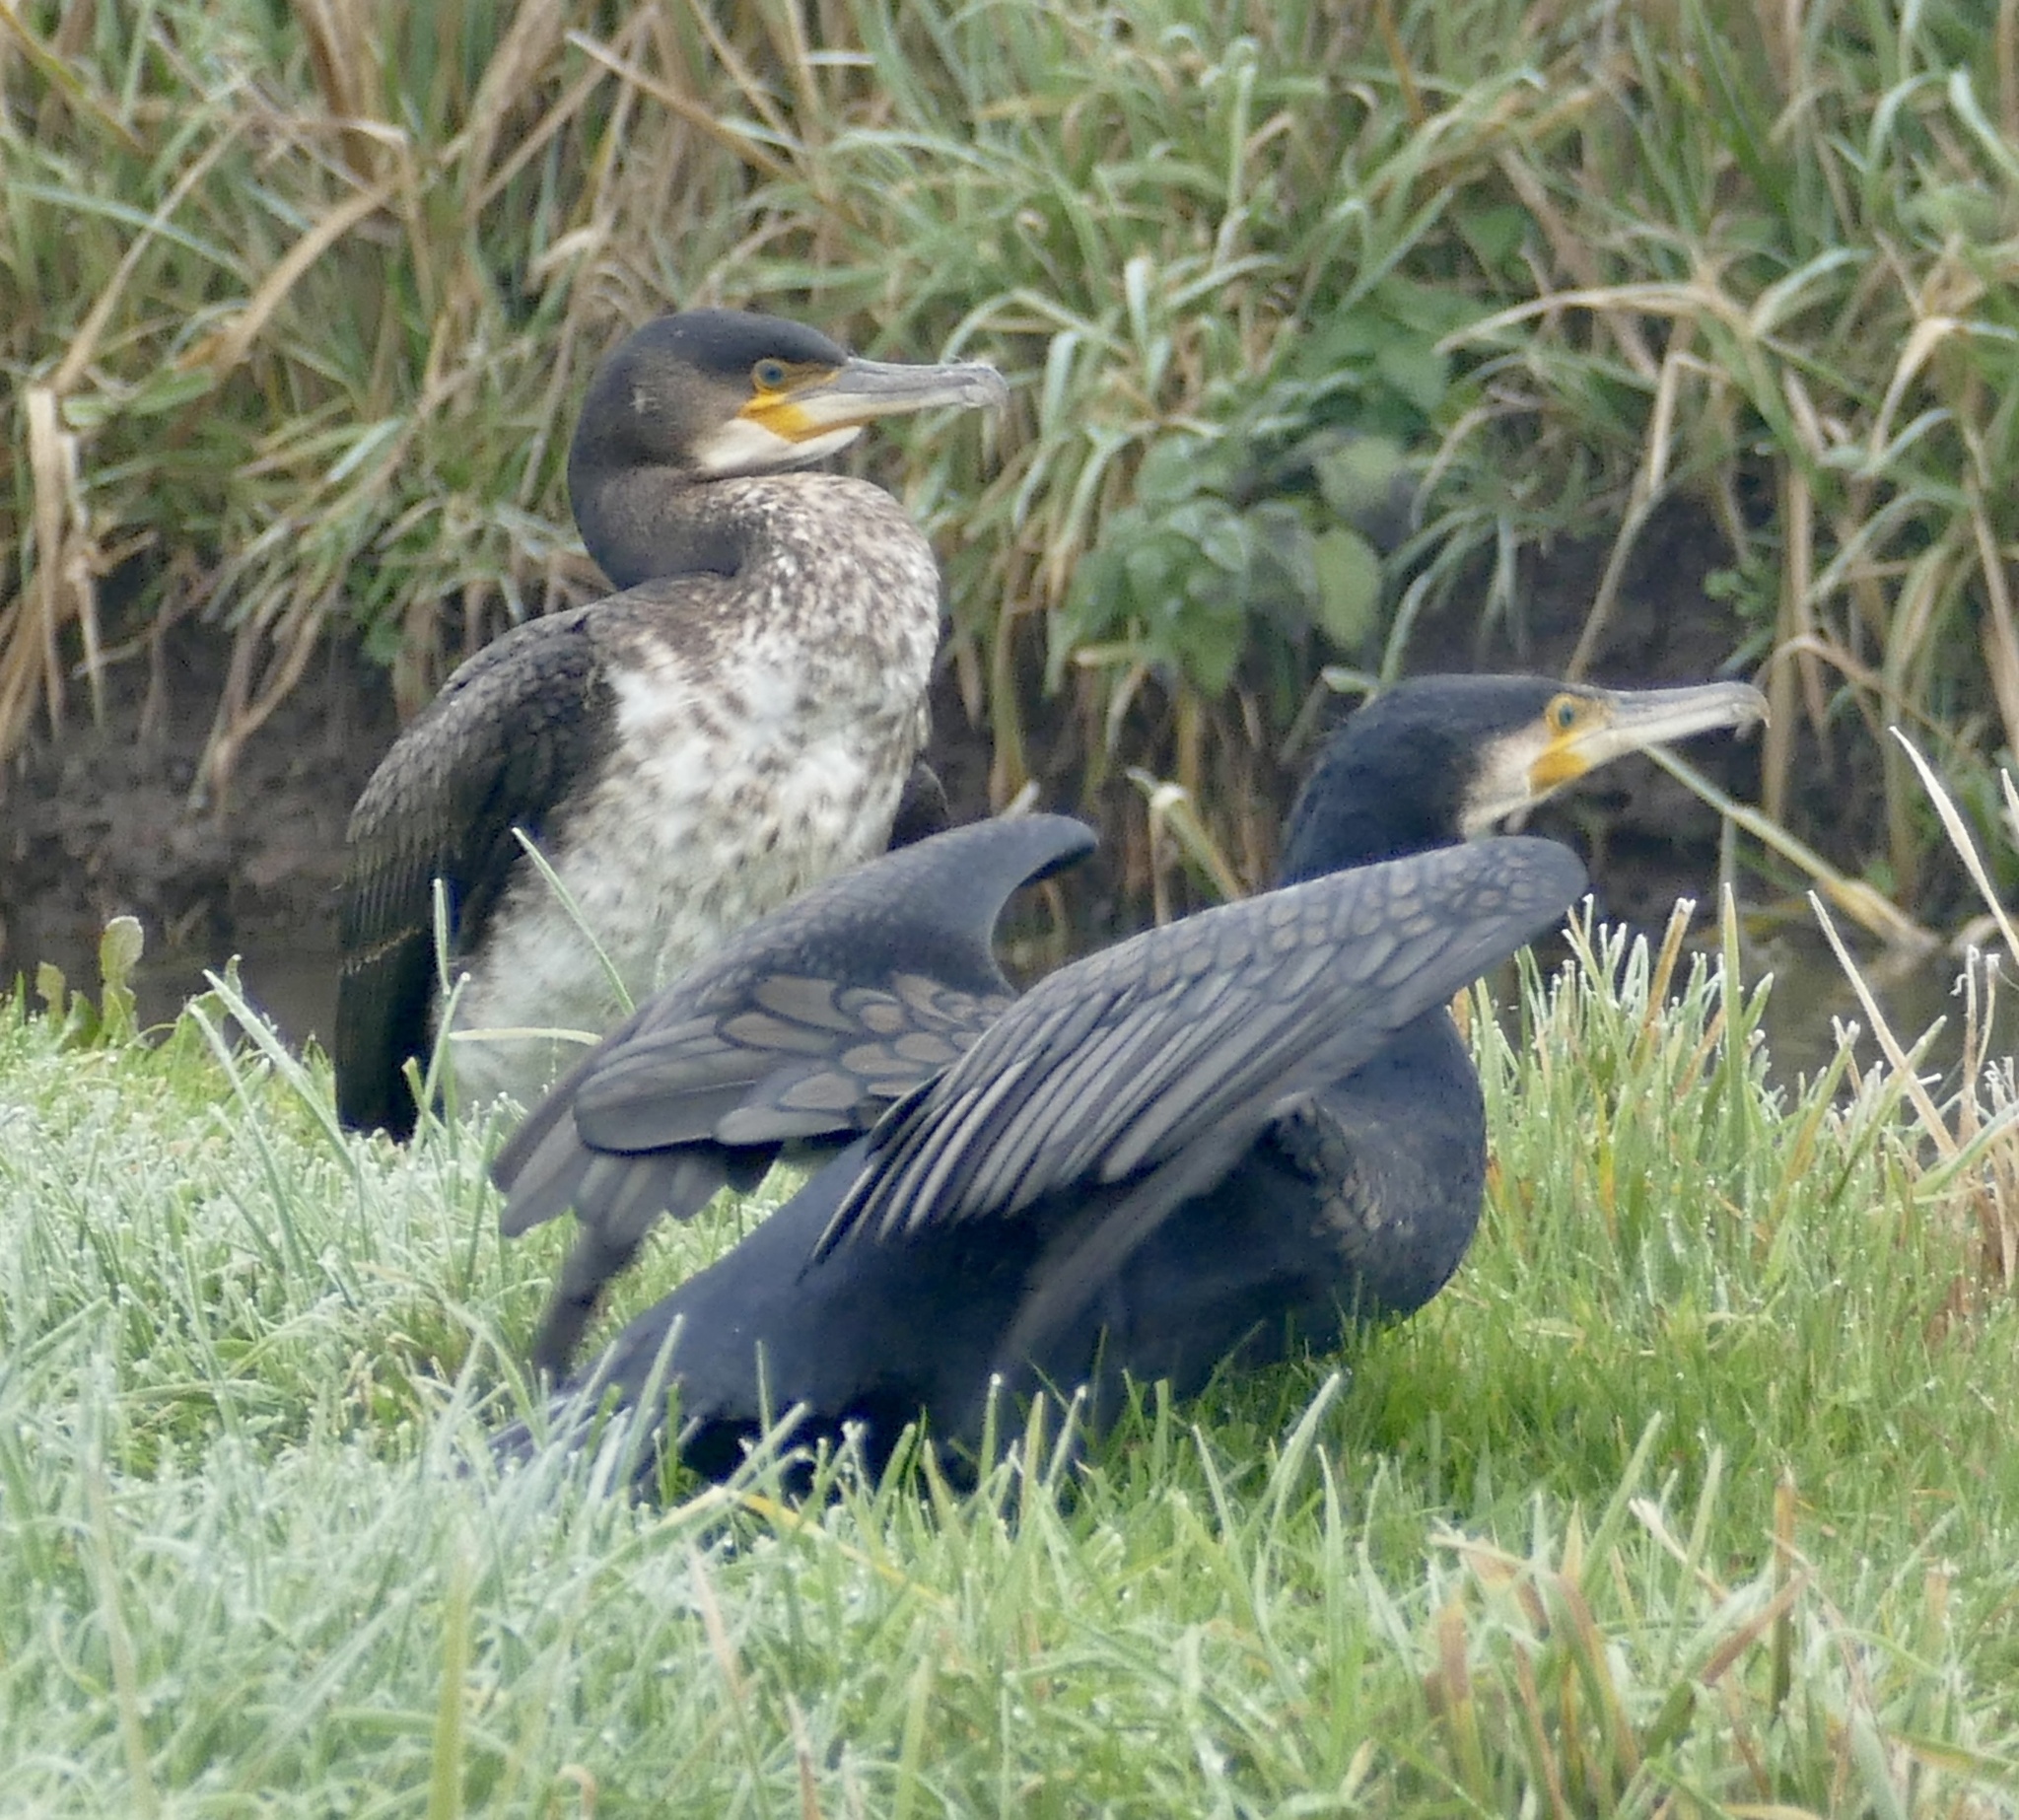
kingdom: Animalia
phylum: Chordata
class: Aves
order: Suliformes
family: Phalacrocoracidae
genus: Phalacrocorax
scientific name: Phalacrocorax carbo
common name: Great cormorant
